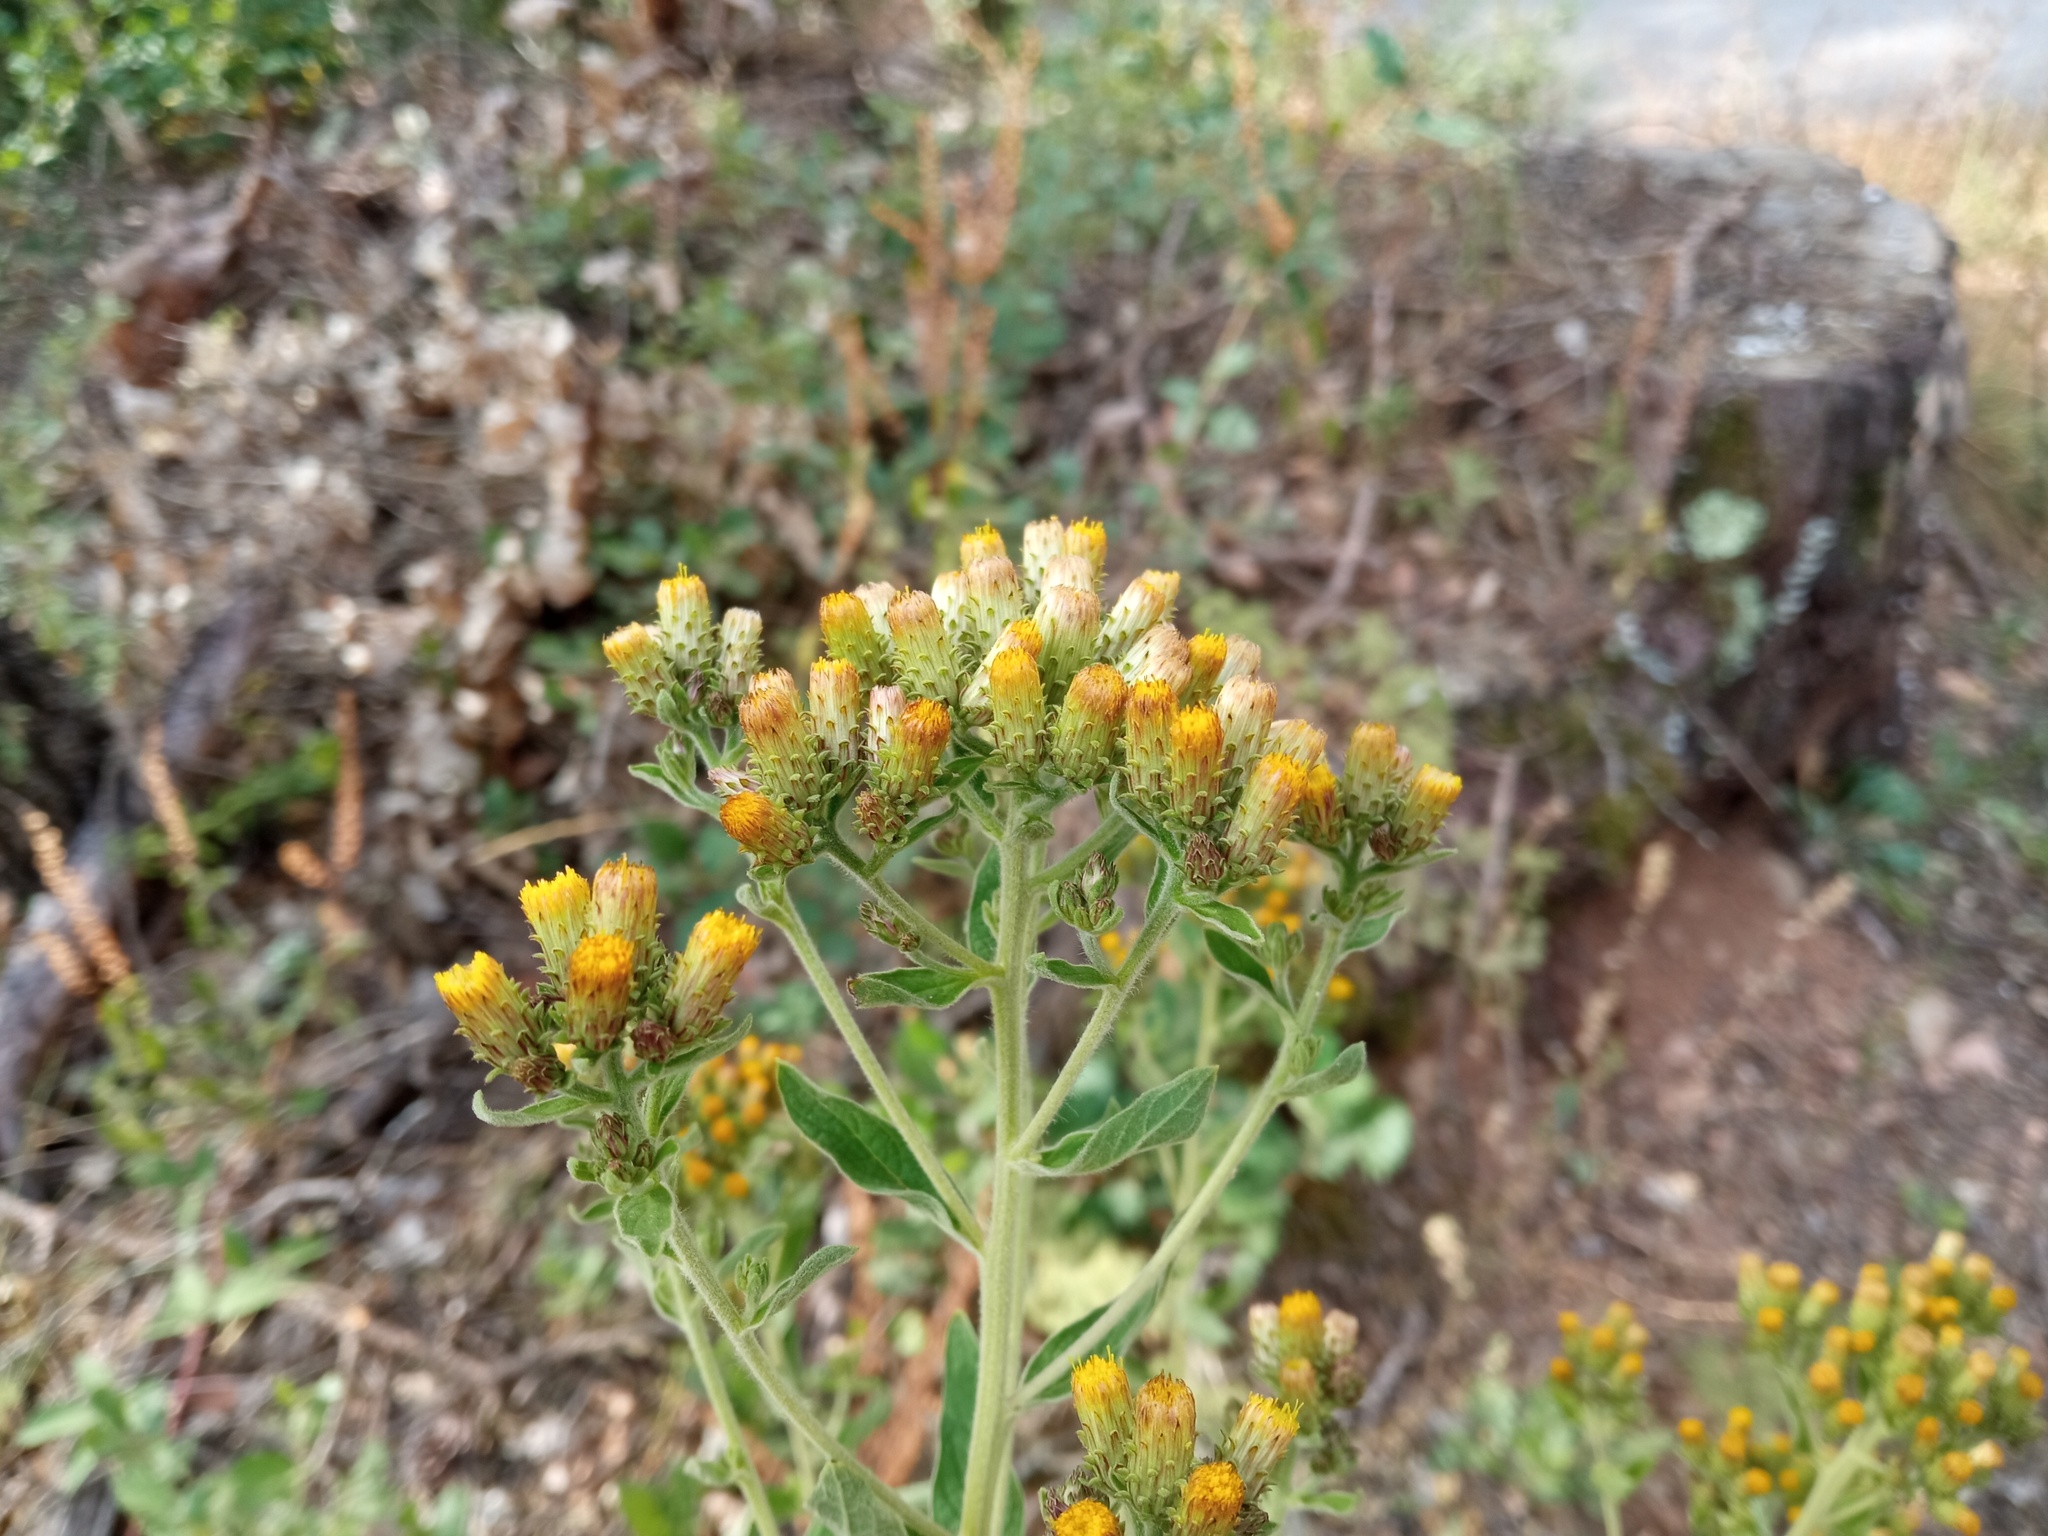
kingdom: Plantae
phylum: Tracheophyta
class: Magnoliopsida
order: Asterales
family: Asteraceae
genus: Pentanema
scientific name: Pentanema squarrosum
